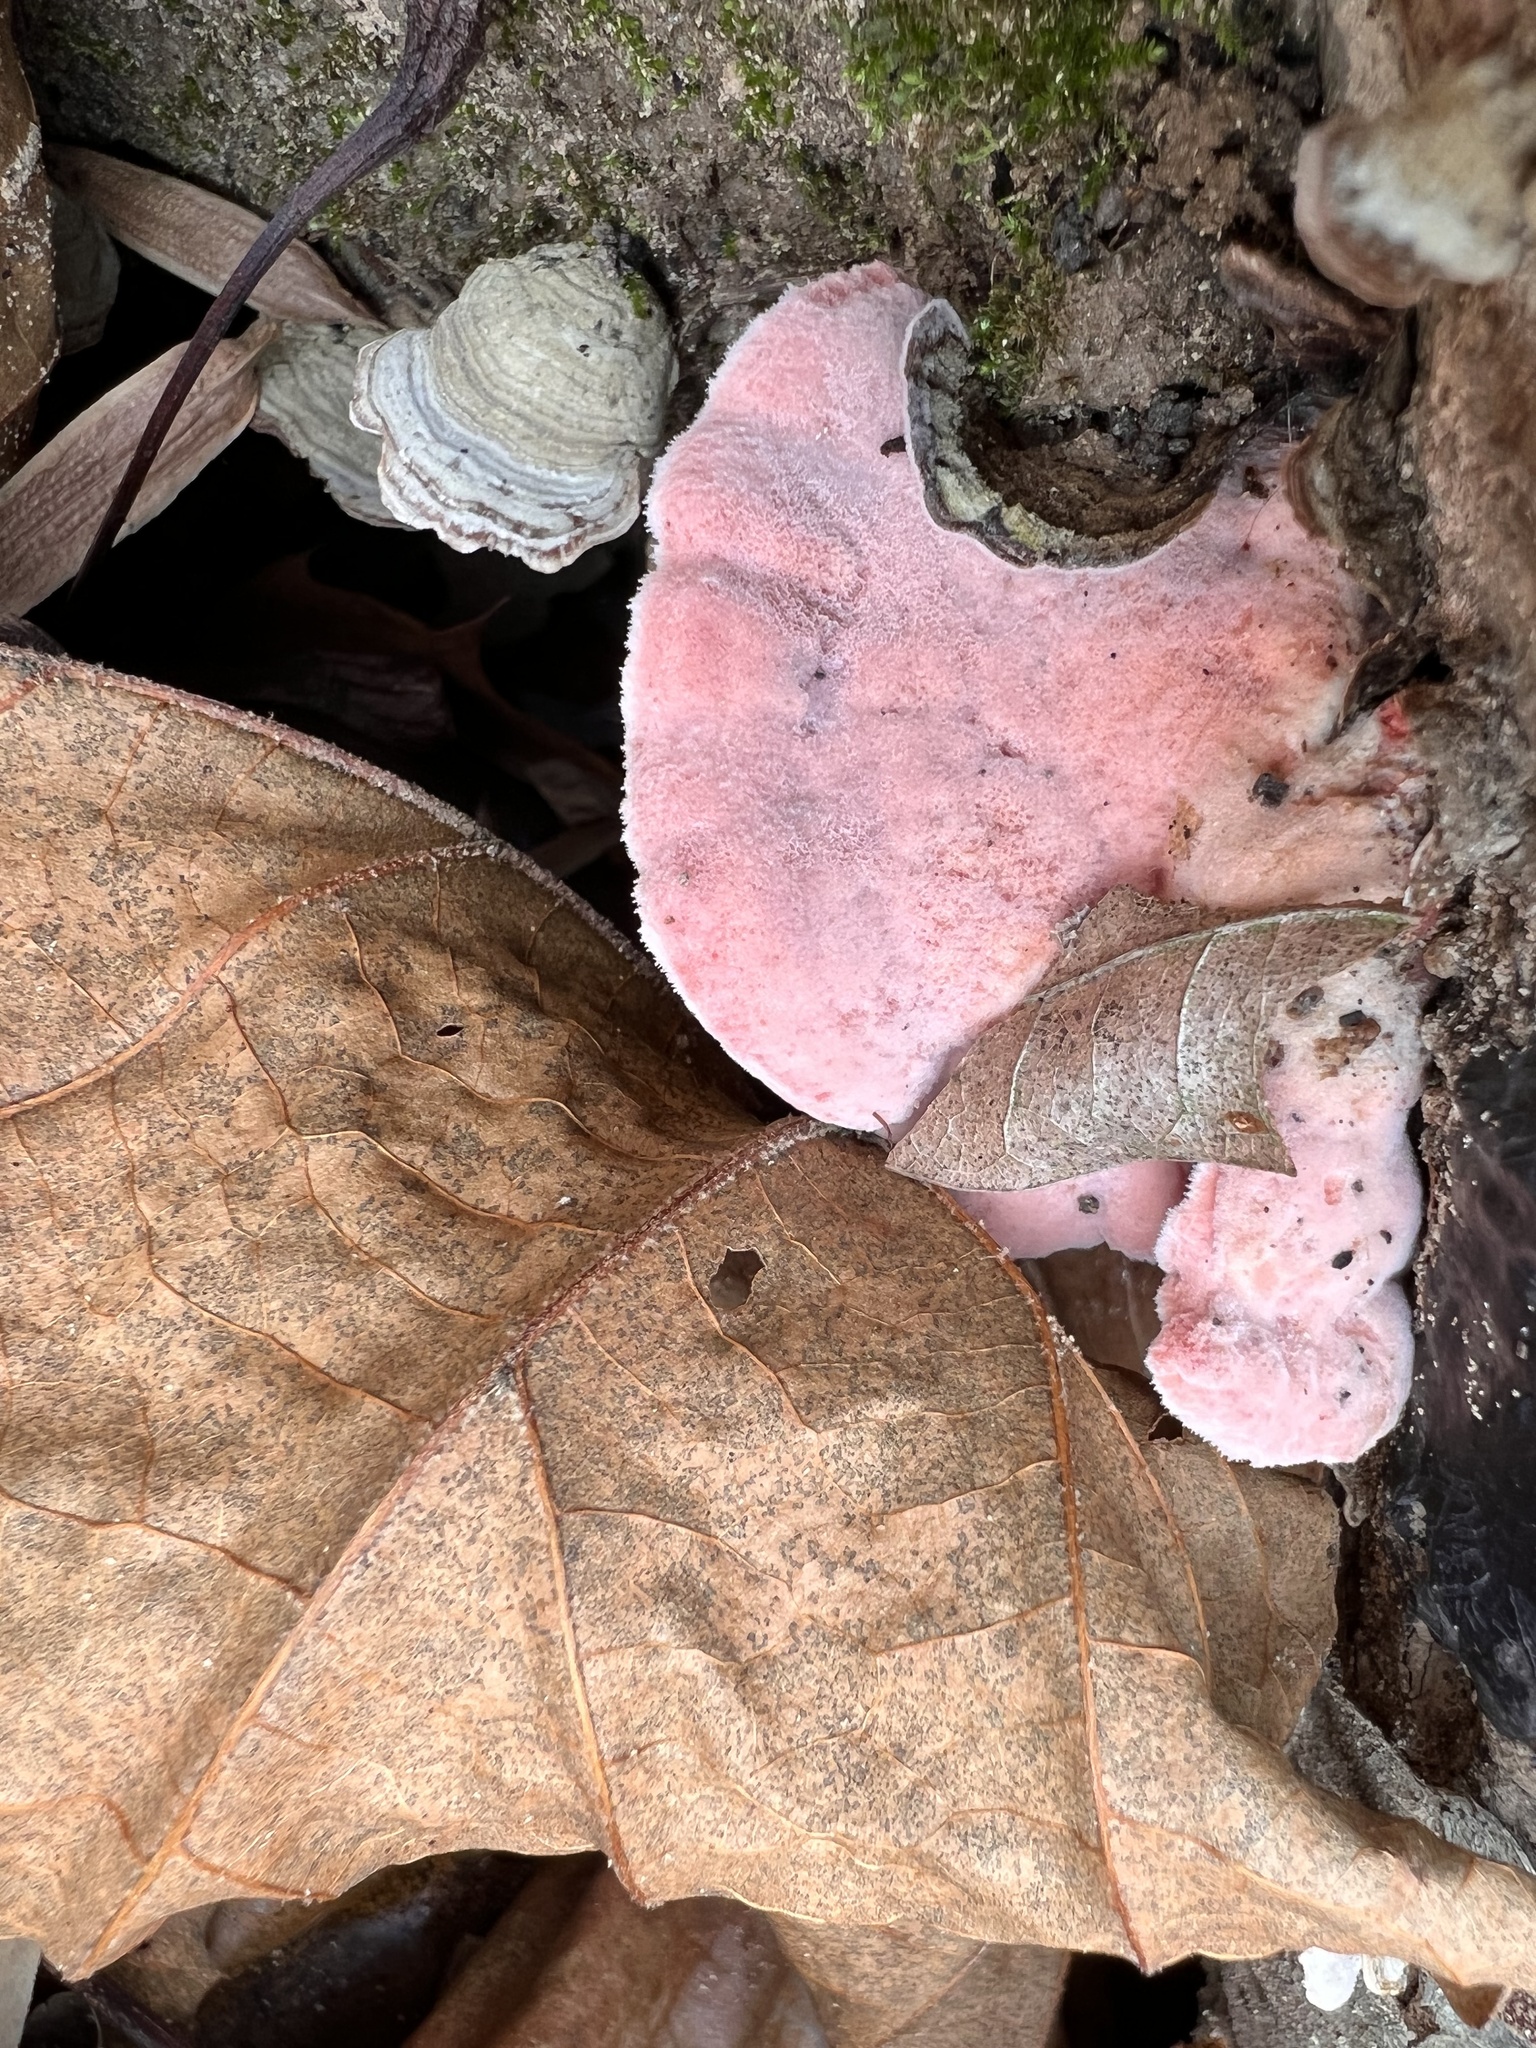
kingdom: Fungi
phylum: Basidiomycota
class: Agaricomycetes
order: Polyporales
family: Irpicaceae
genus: Byssomerulius
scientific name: Byssomerulius incarnatus
